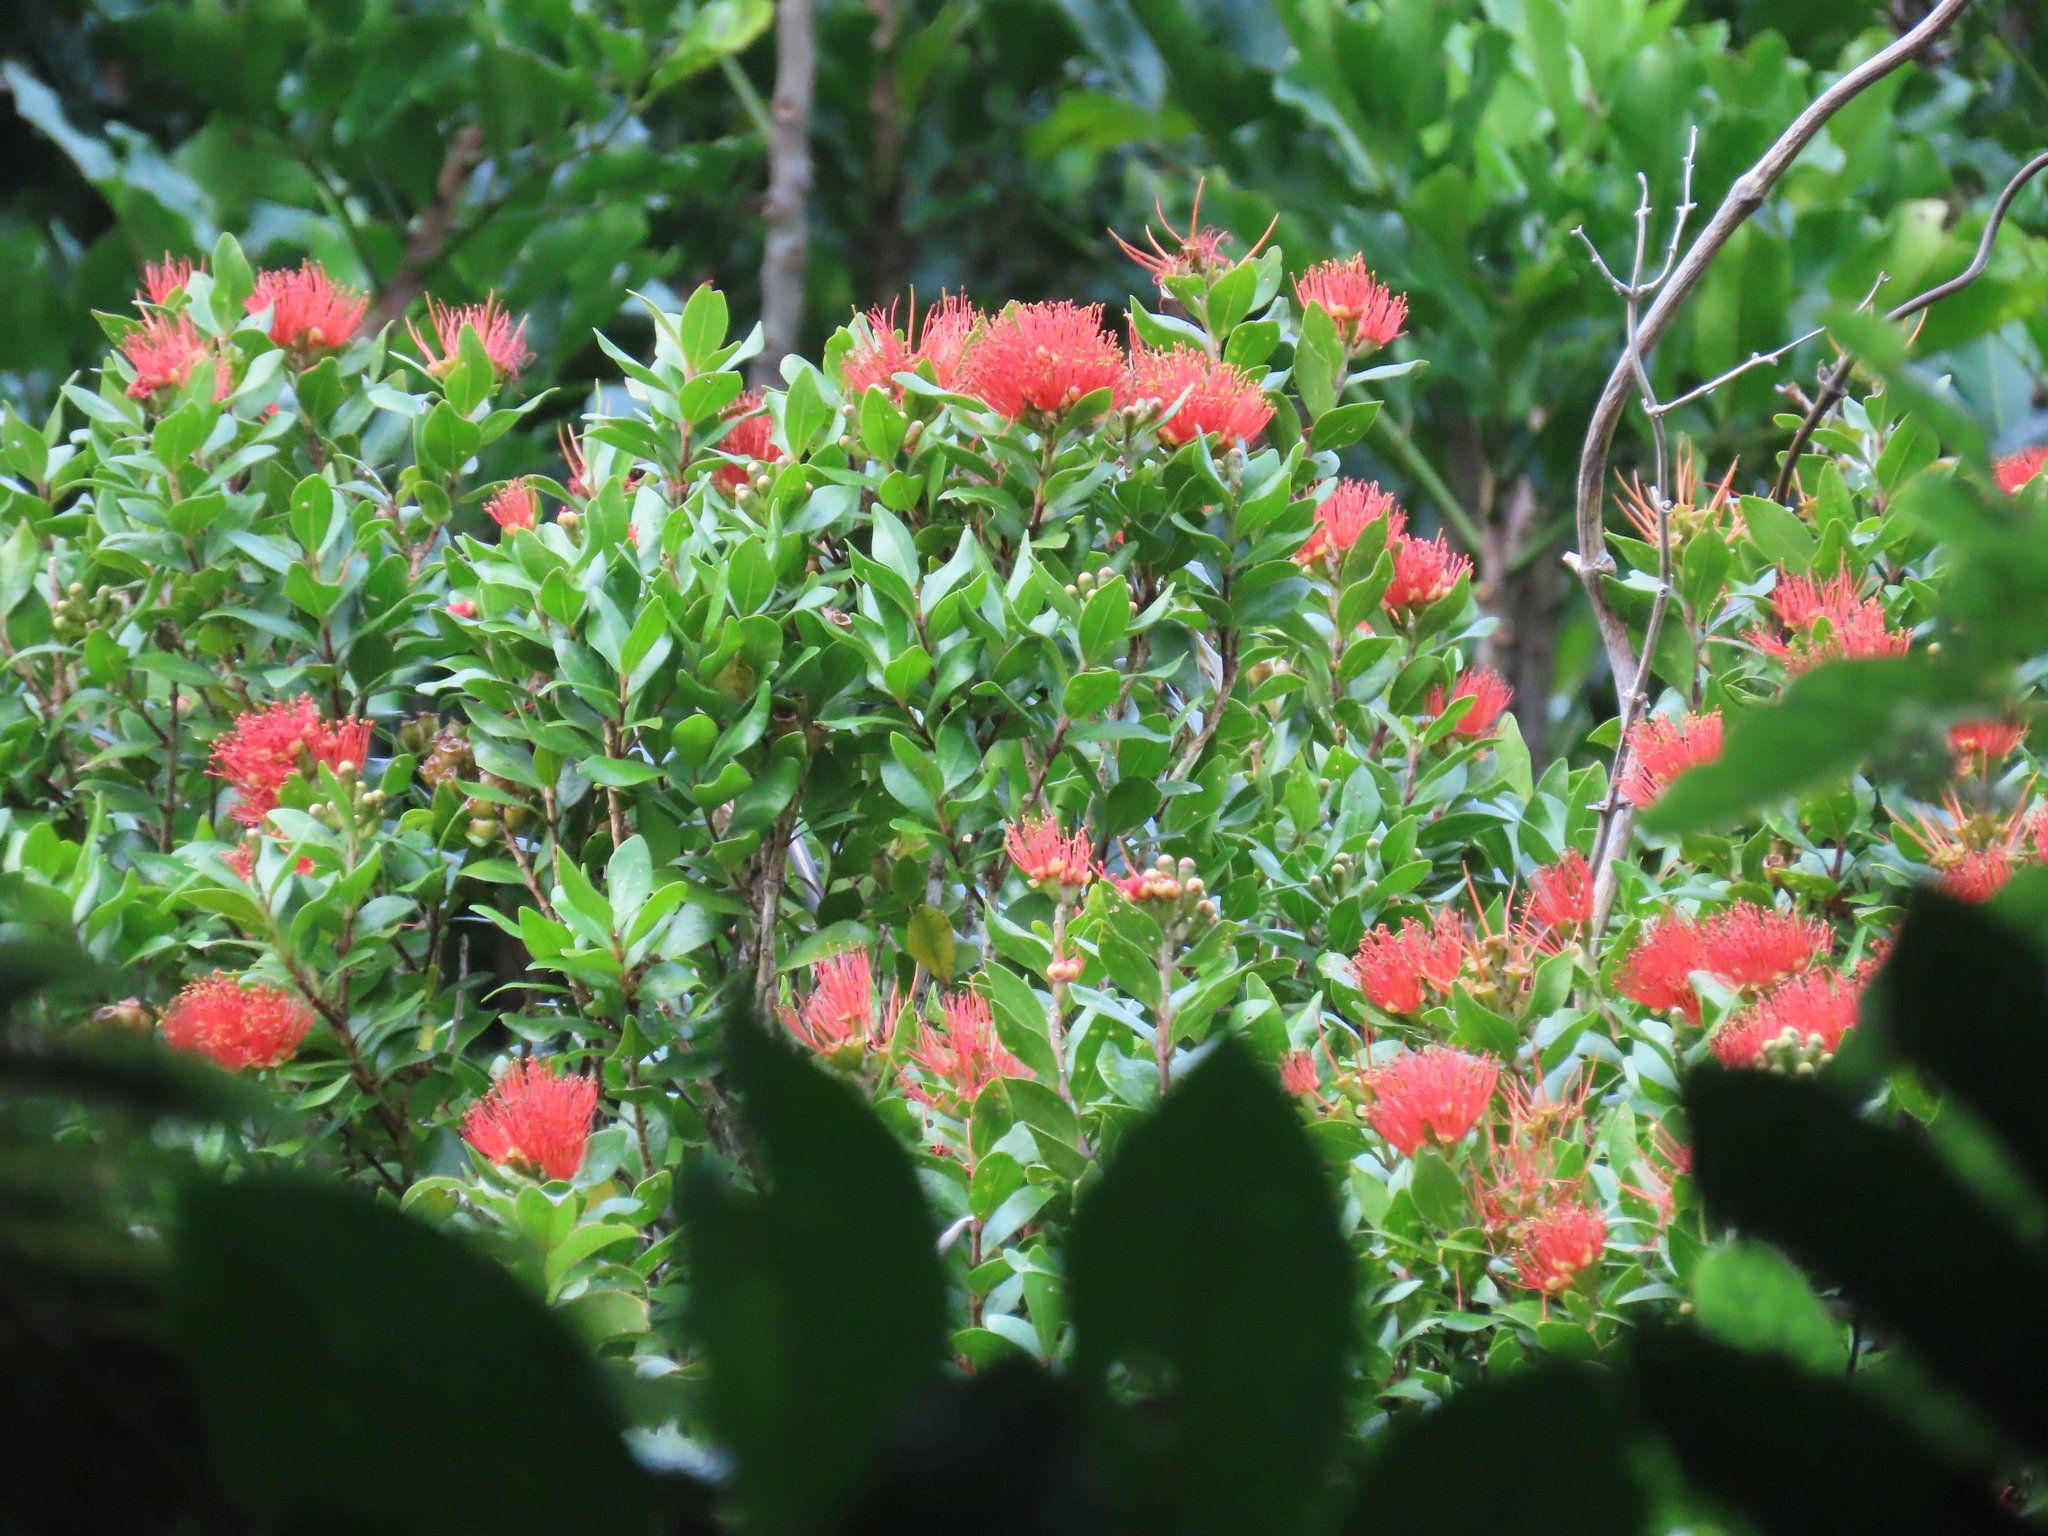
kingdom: Plantae
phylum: Tracheophyta
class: Magnoliopsida
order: Myrtales
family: Myrtaceae
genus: Metrosideros
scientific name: Metrosideros fulgens
